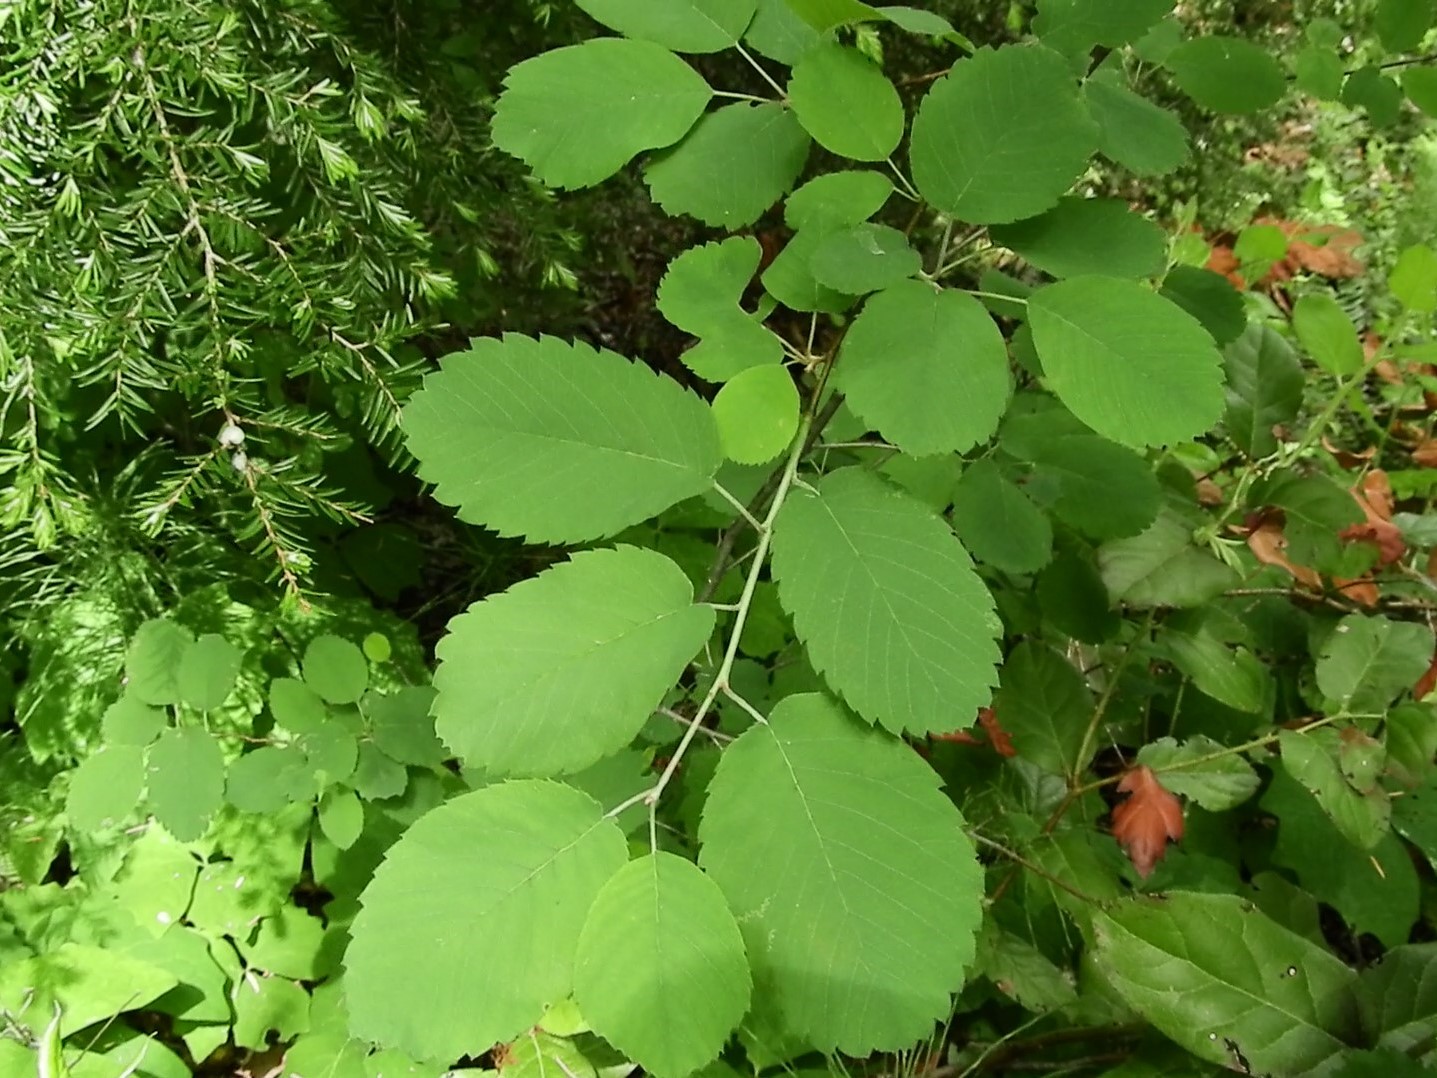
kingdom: Plantae
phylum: Tracheophyta
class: Magnoliopsida
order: Rosales
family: Rosaceae
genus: Amelanchier
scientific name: Amelanchier alnifolia
